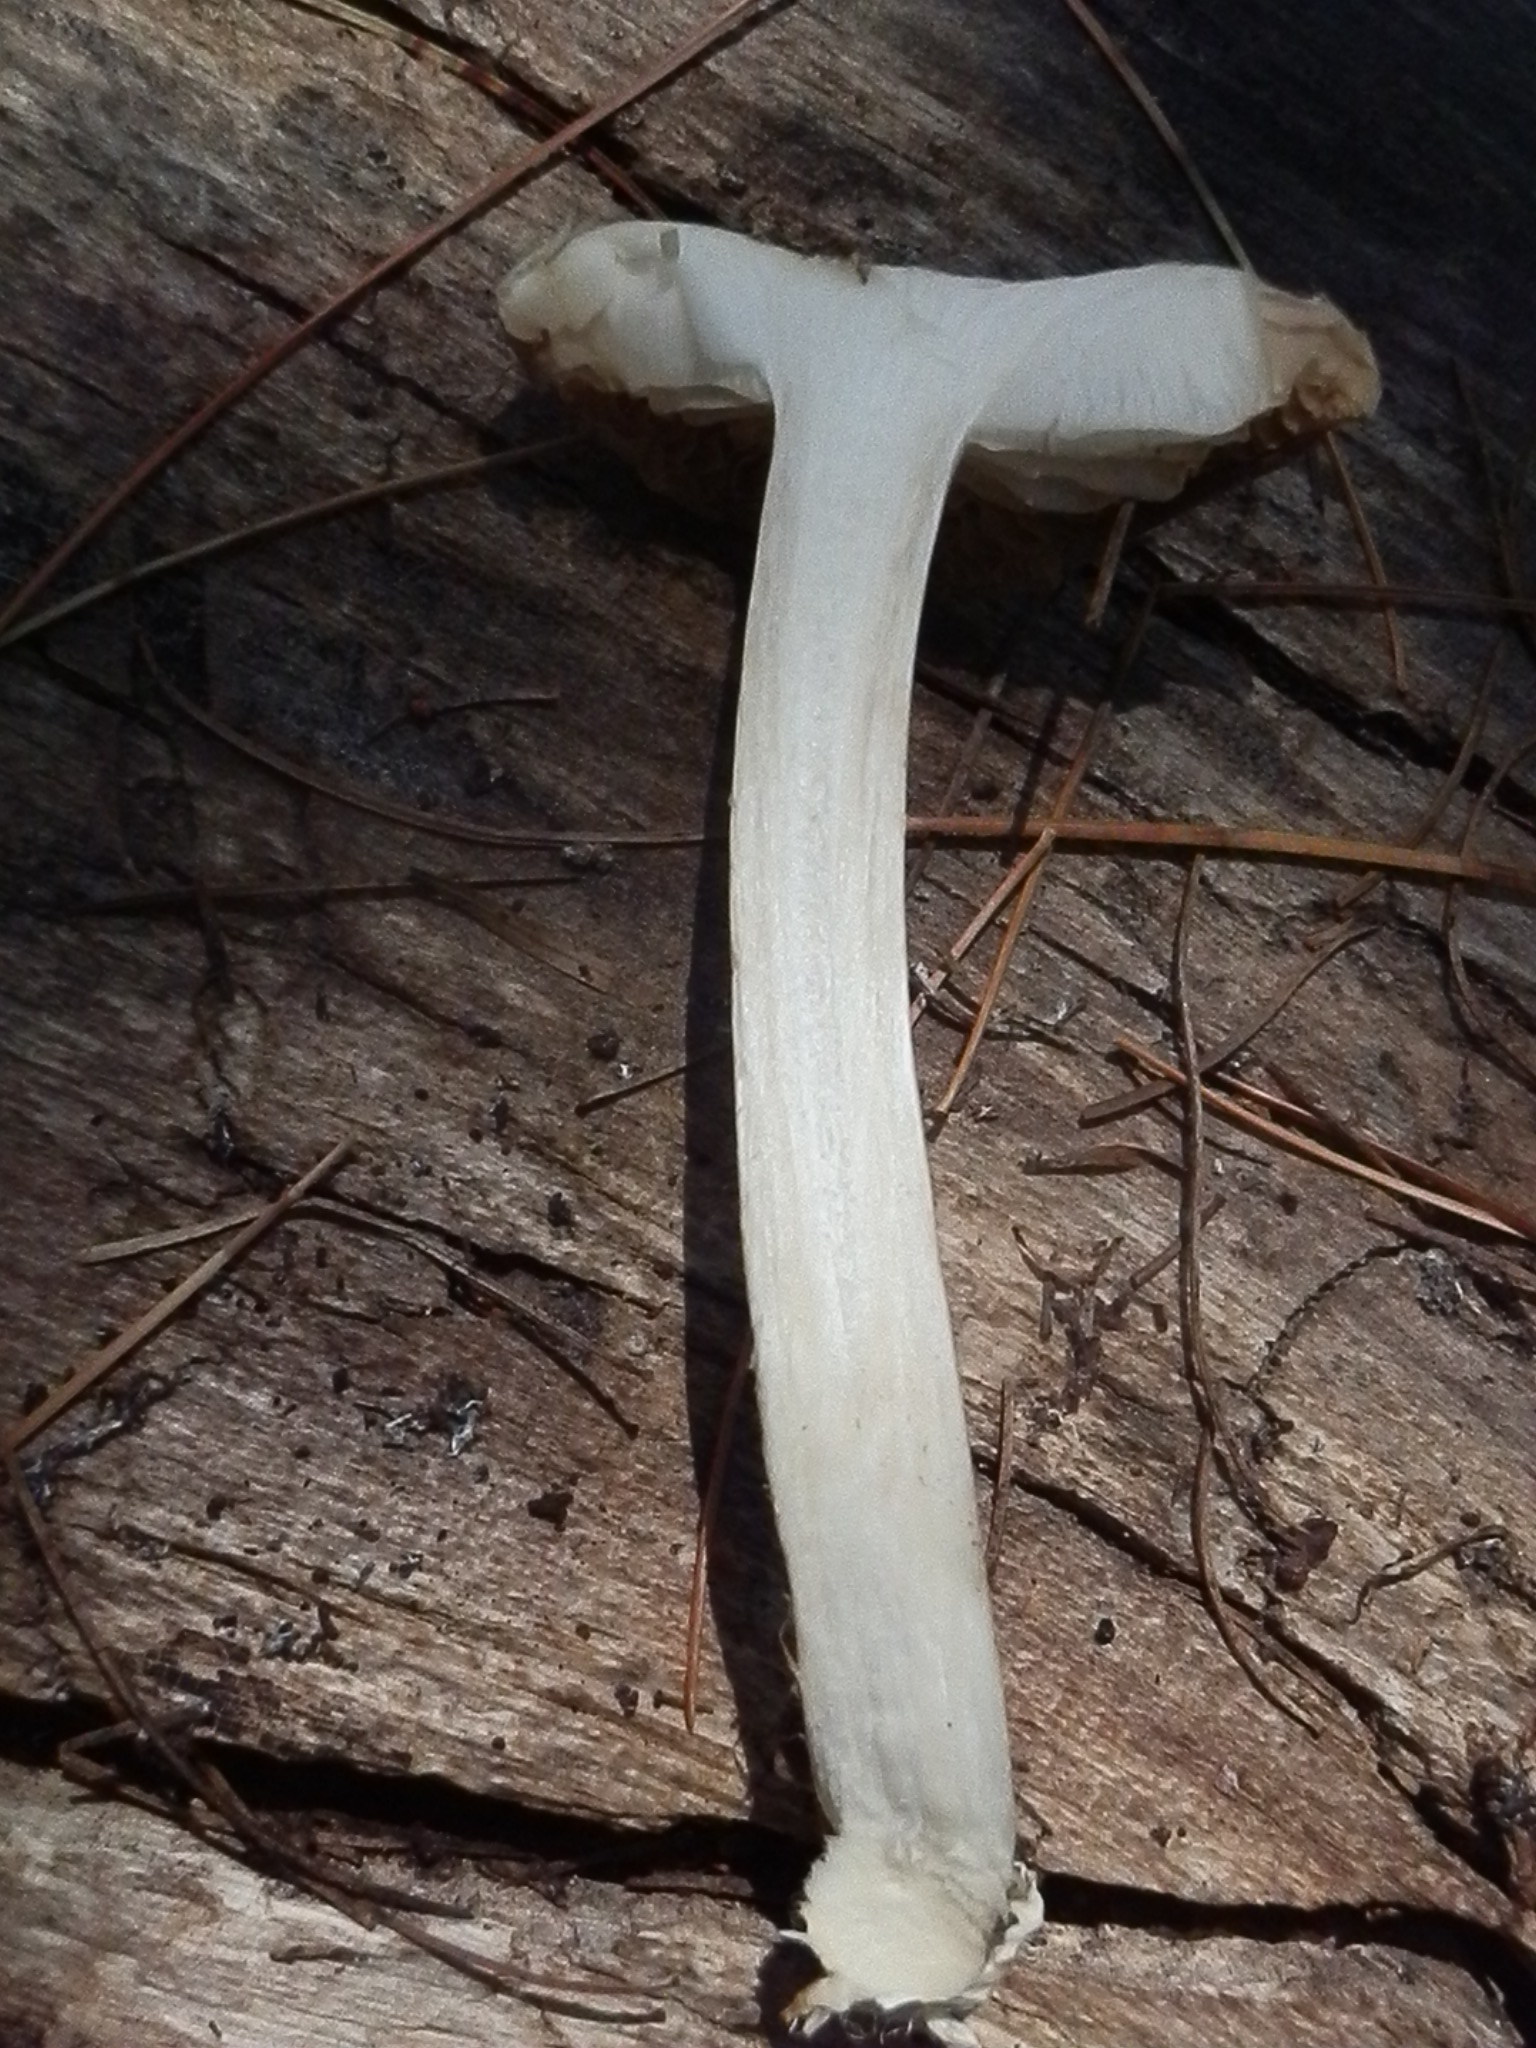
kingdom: Fungi
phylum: Basidiomycota
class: Agaricomycetes
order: Agaricales
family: Tricholomataceae
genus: Megacollybia
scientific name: Megacollybia fallax
